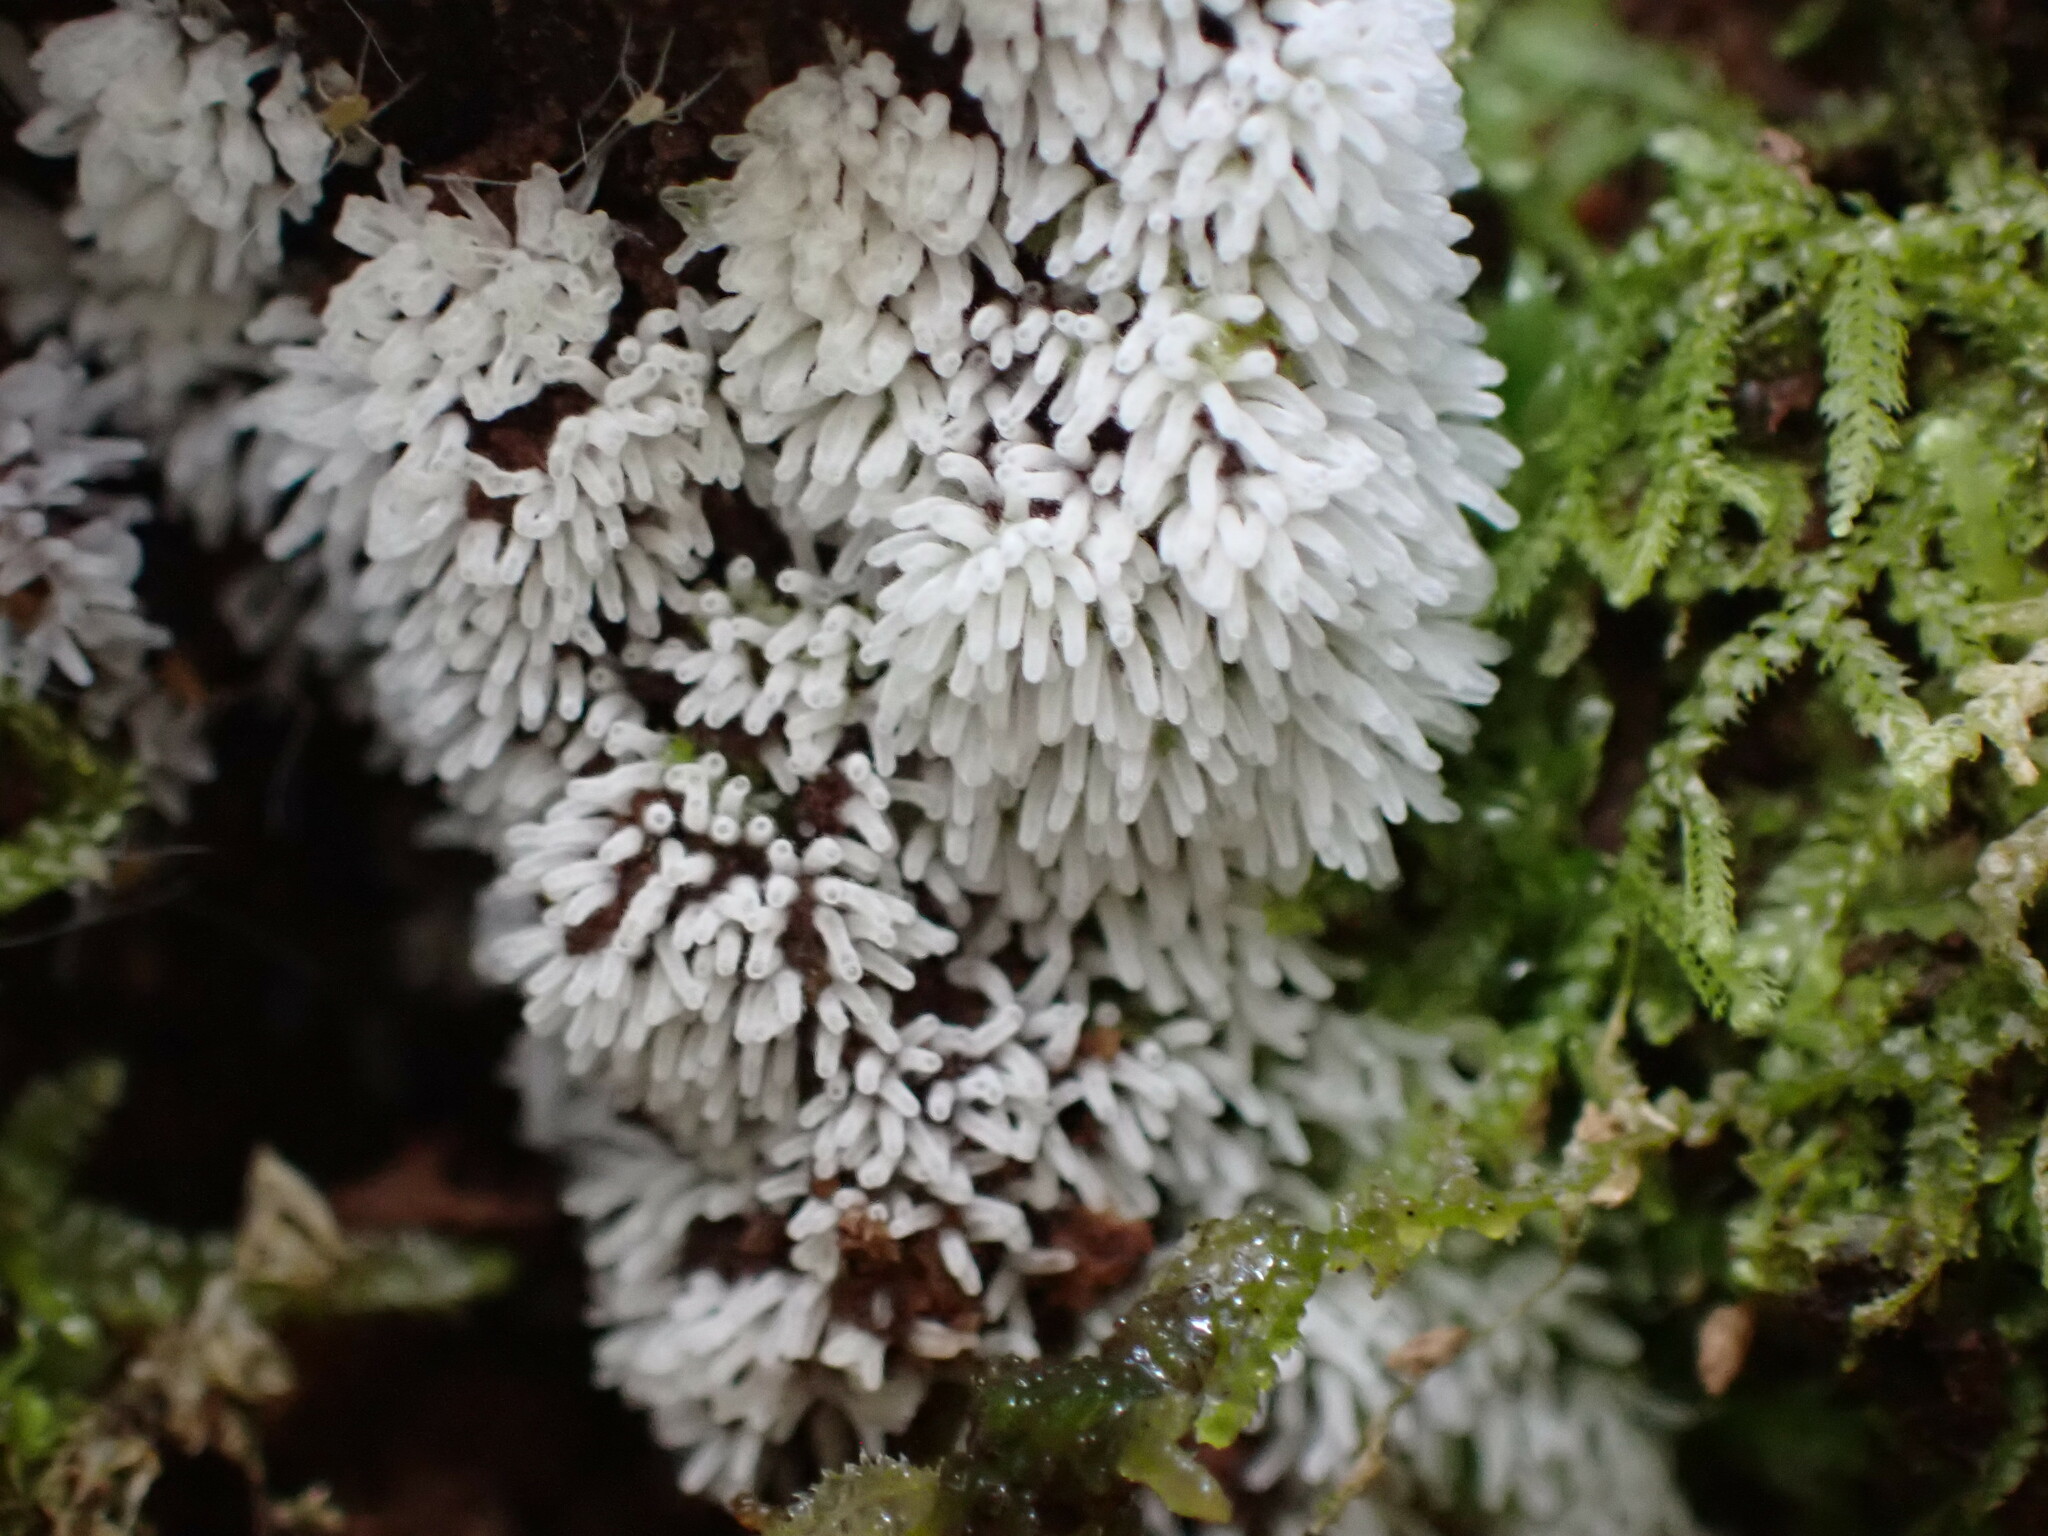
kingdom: Protozoa
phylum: Mycetozoa
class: Protosteliomycetes
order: Ceratiomyxales
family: Ceratiomyxaceae
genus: Ceratiomyxa
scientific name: Ceratiomyxa fruticulosa
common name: Honeycomb coral slime mold
